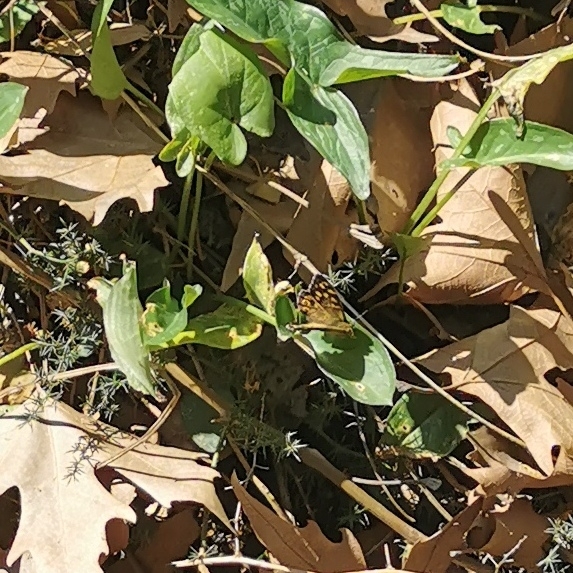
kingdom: Animalia
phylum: Arthropoda
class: Insecta
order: Lepidoptera
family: Nymphalidae
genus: Pararge
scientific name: Pararge aegeria
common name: Speckled wood
